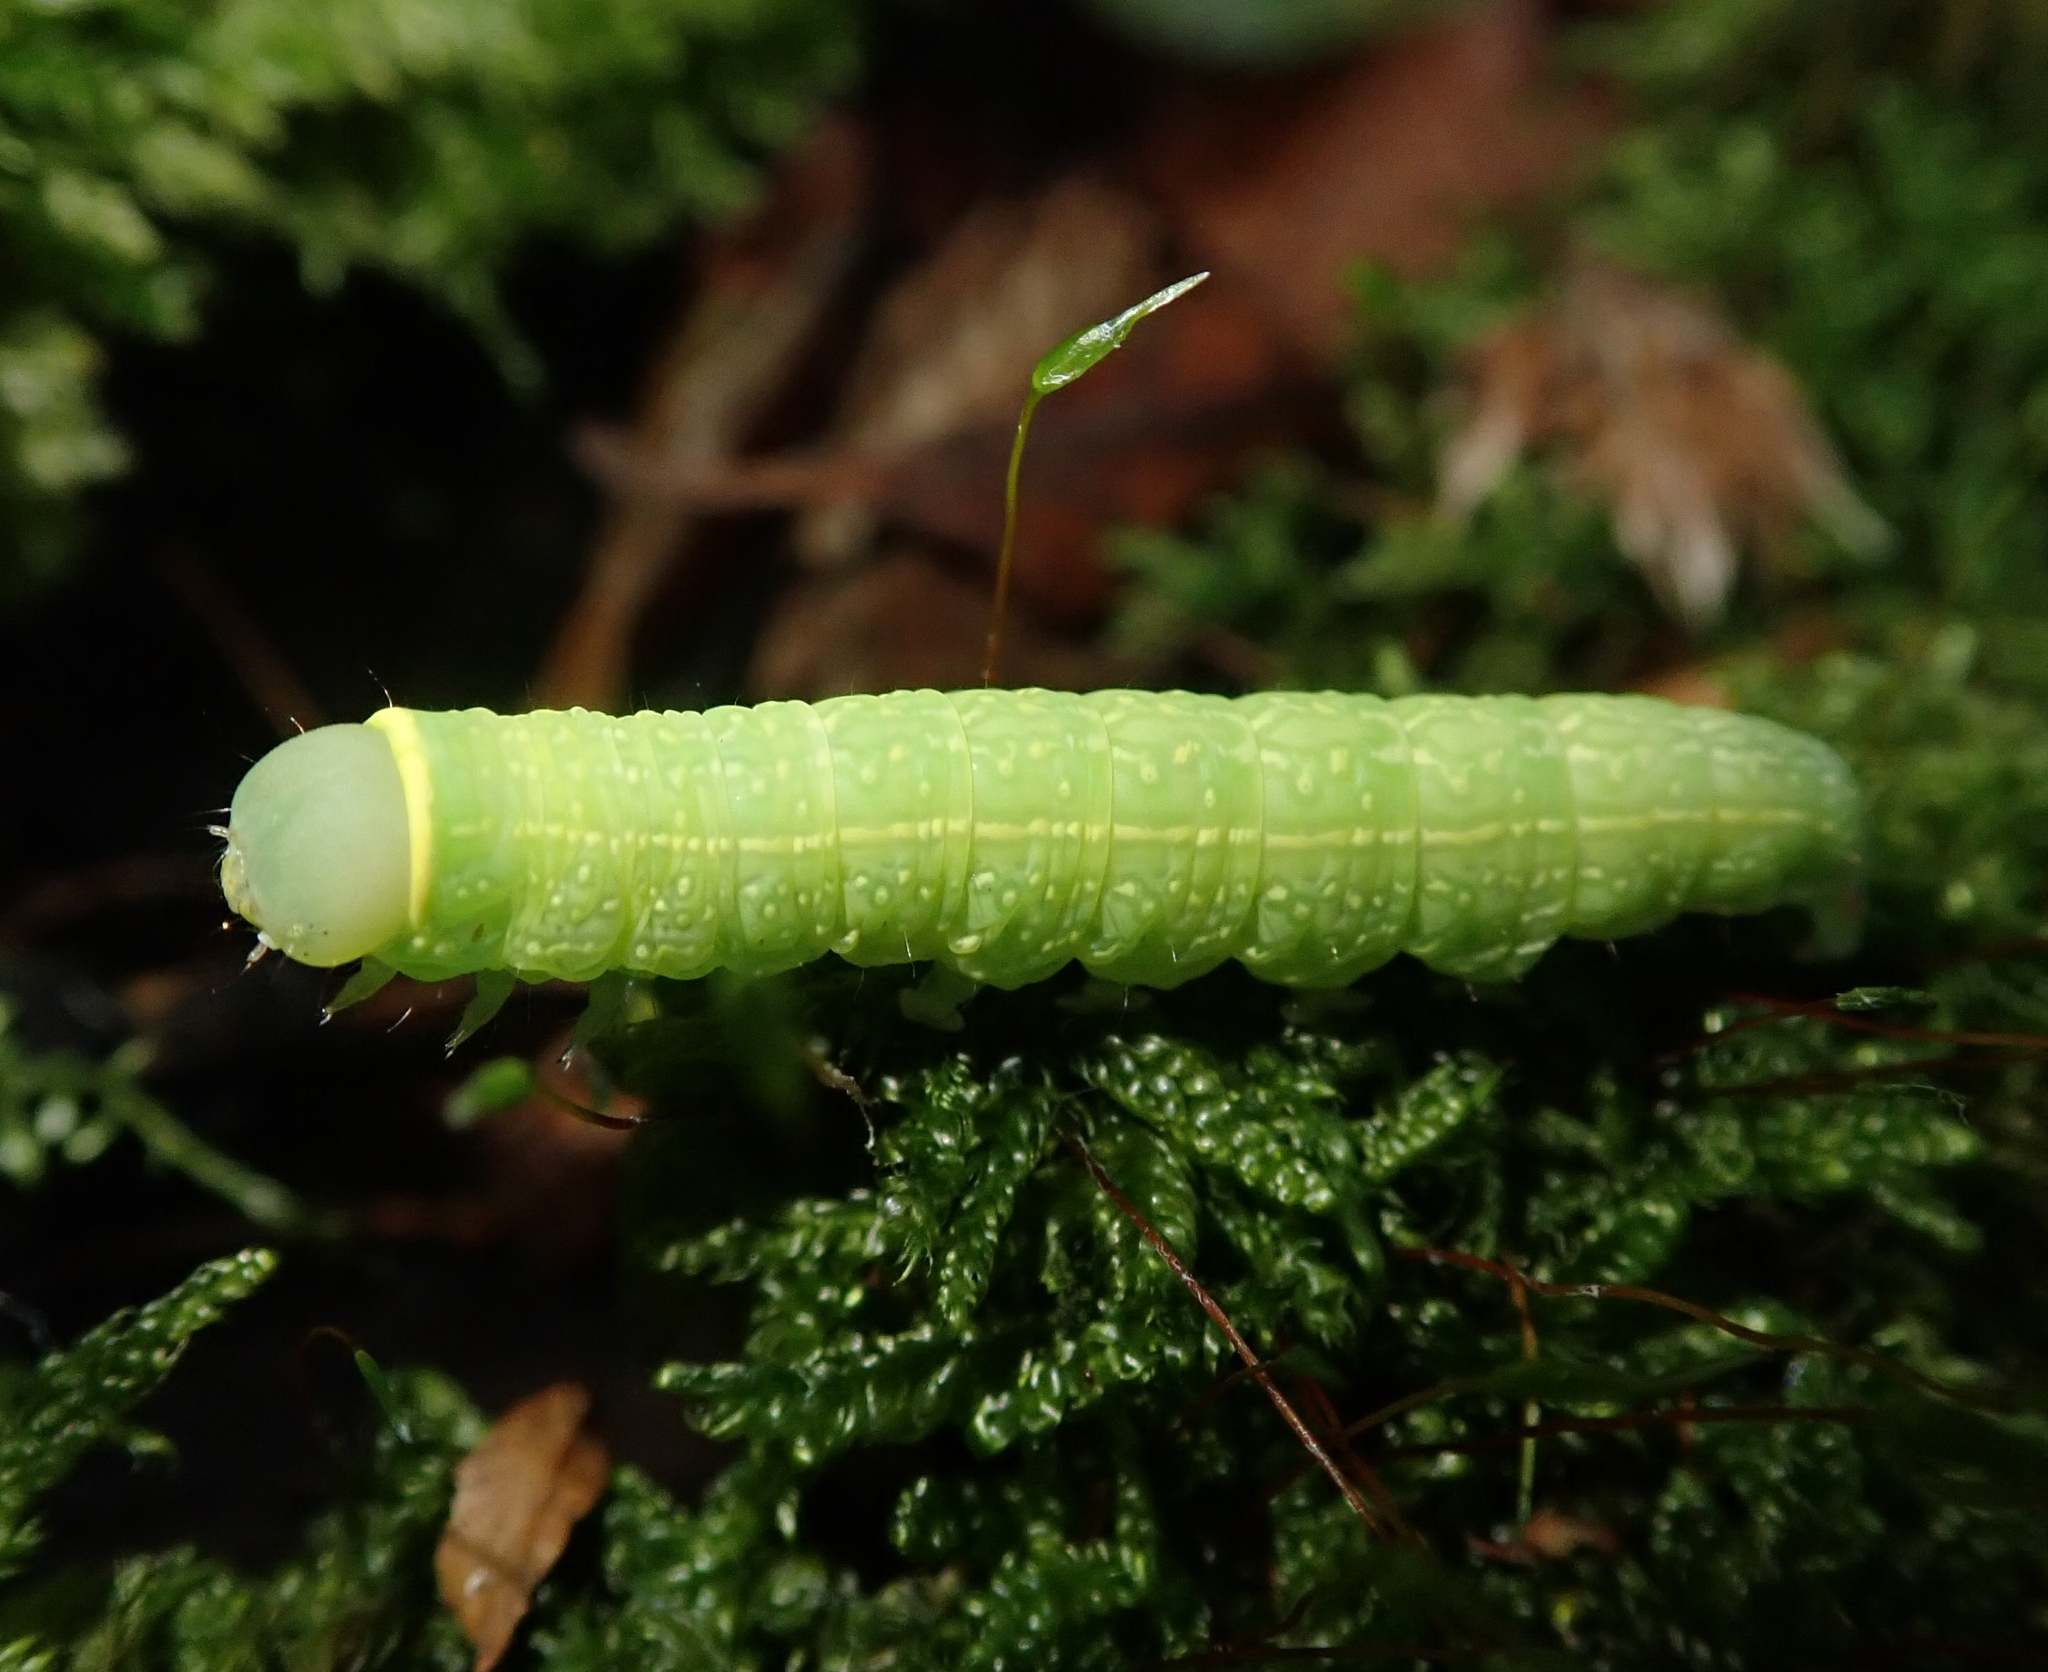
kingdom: Animalia
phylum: Arthropoda
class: Insecta
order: Lepidoptera
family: Nolidae
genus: Pseudoips
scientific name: Pseudoips prasinana
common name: Green silver-lines
